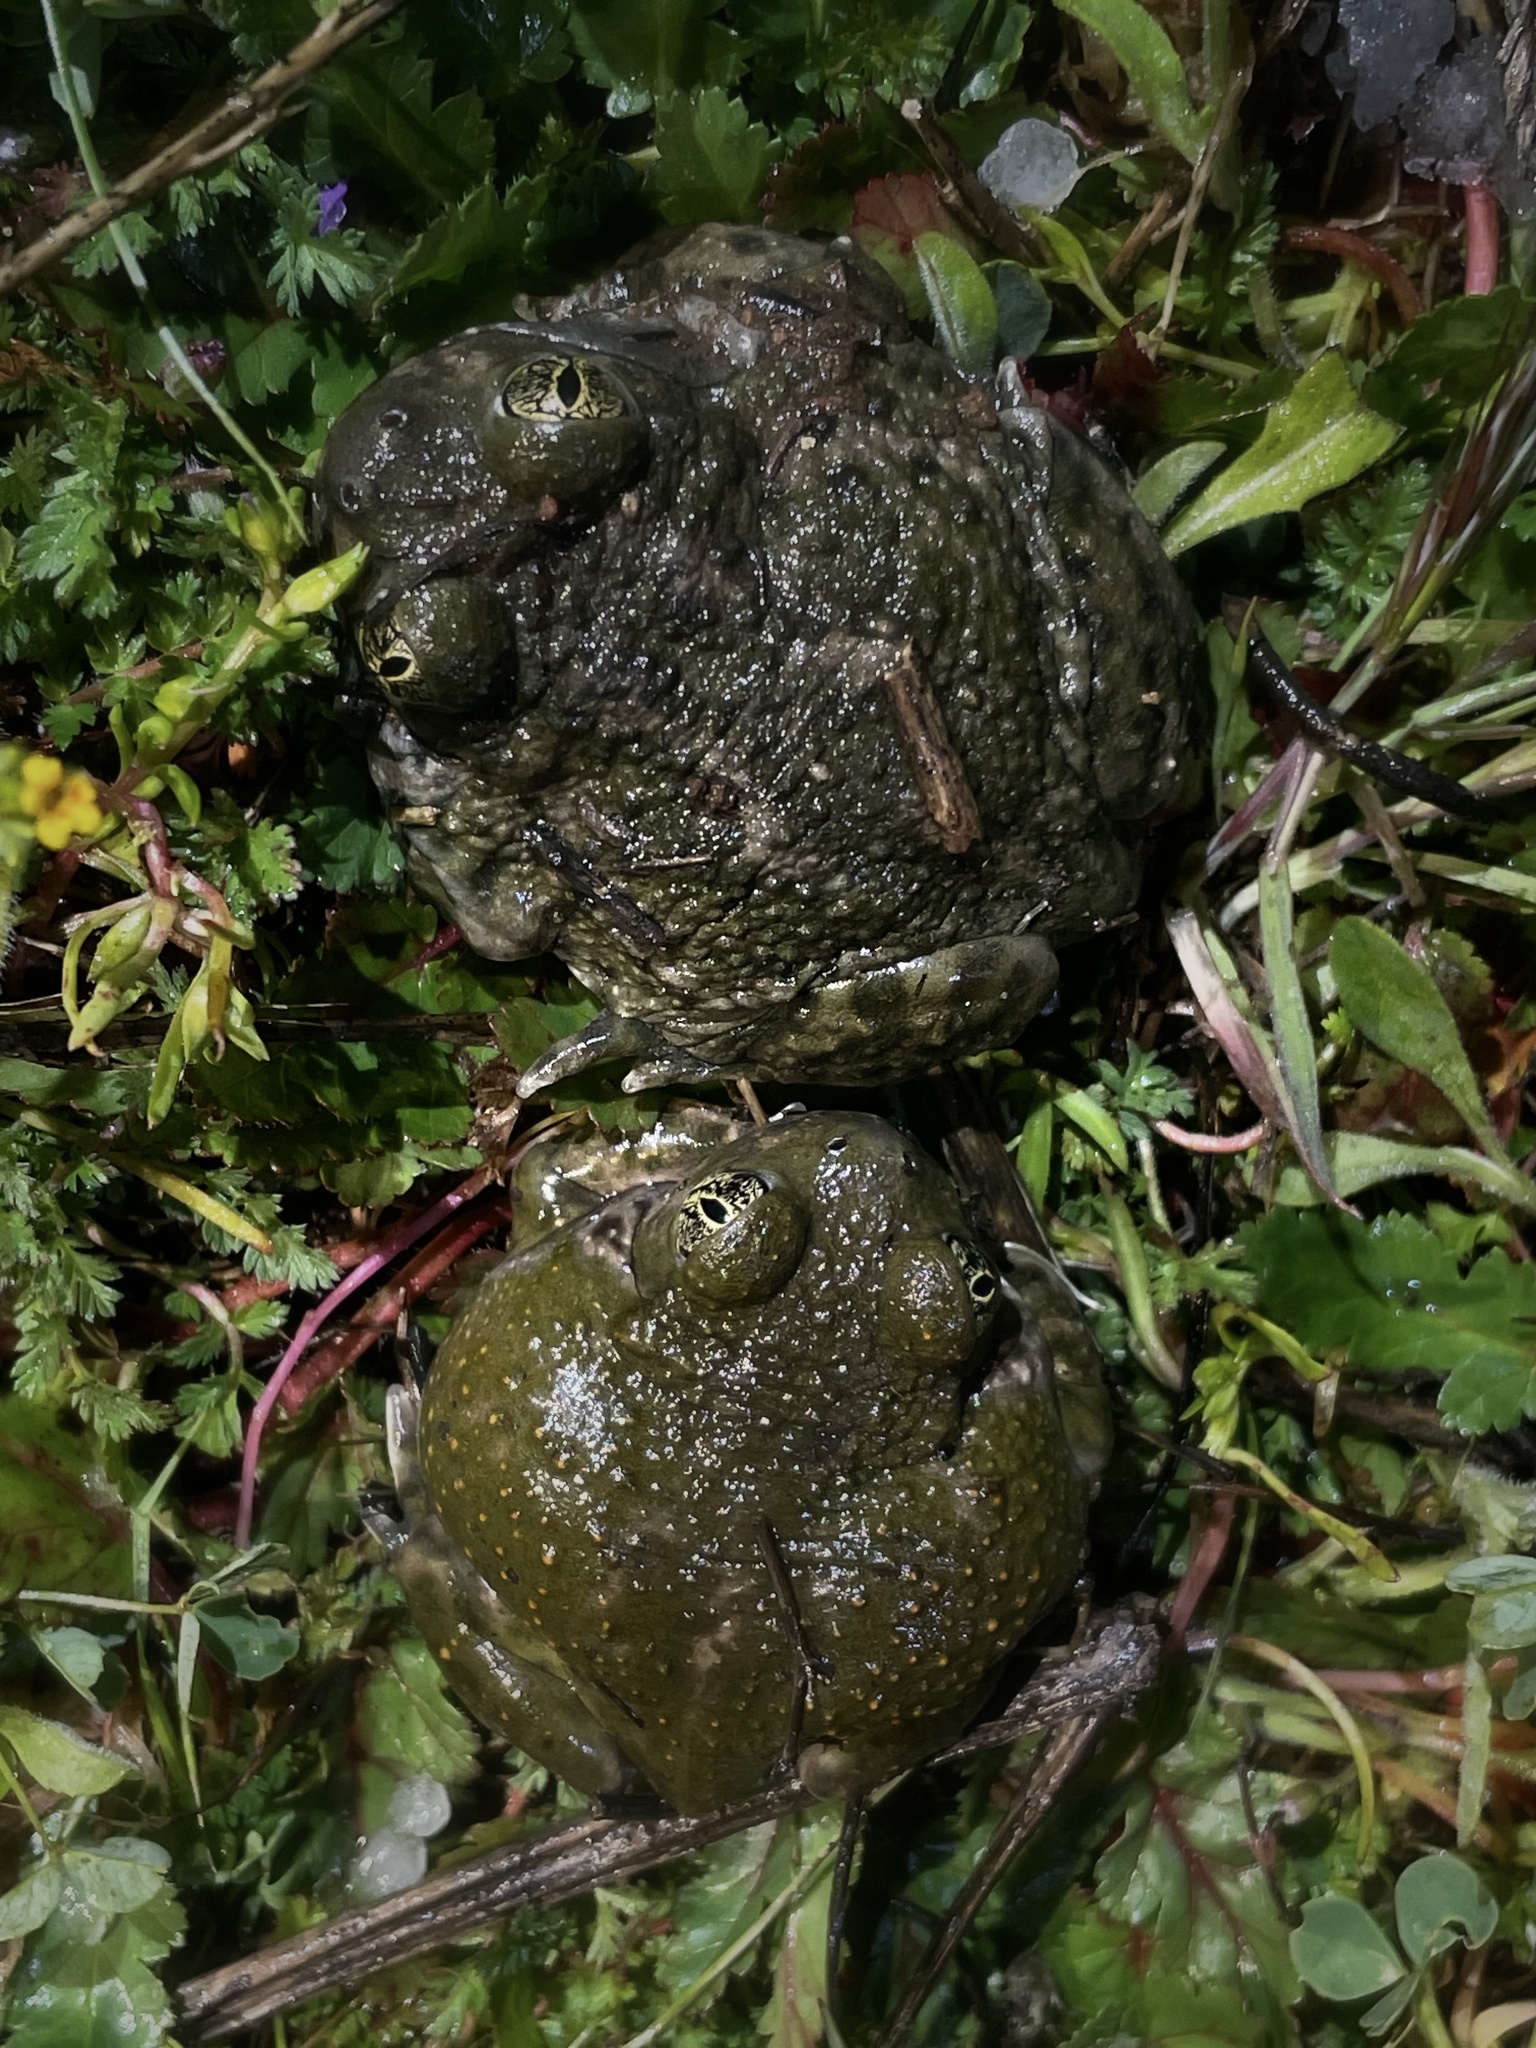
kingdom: Animalia
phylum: Chordata
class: Amphibia
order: Anura
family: Scaphiopodidae
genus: Spea
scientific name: Spea hammondii
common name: Western spadefoot toad
